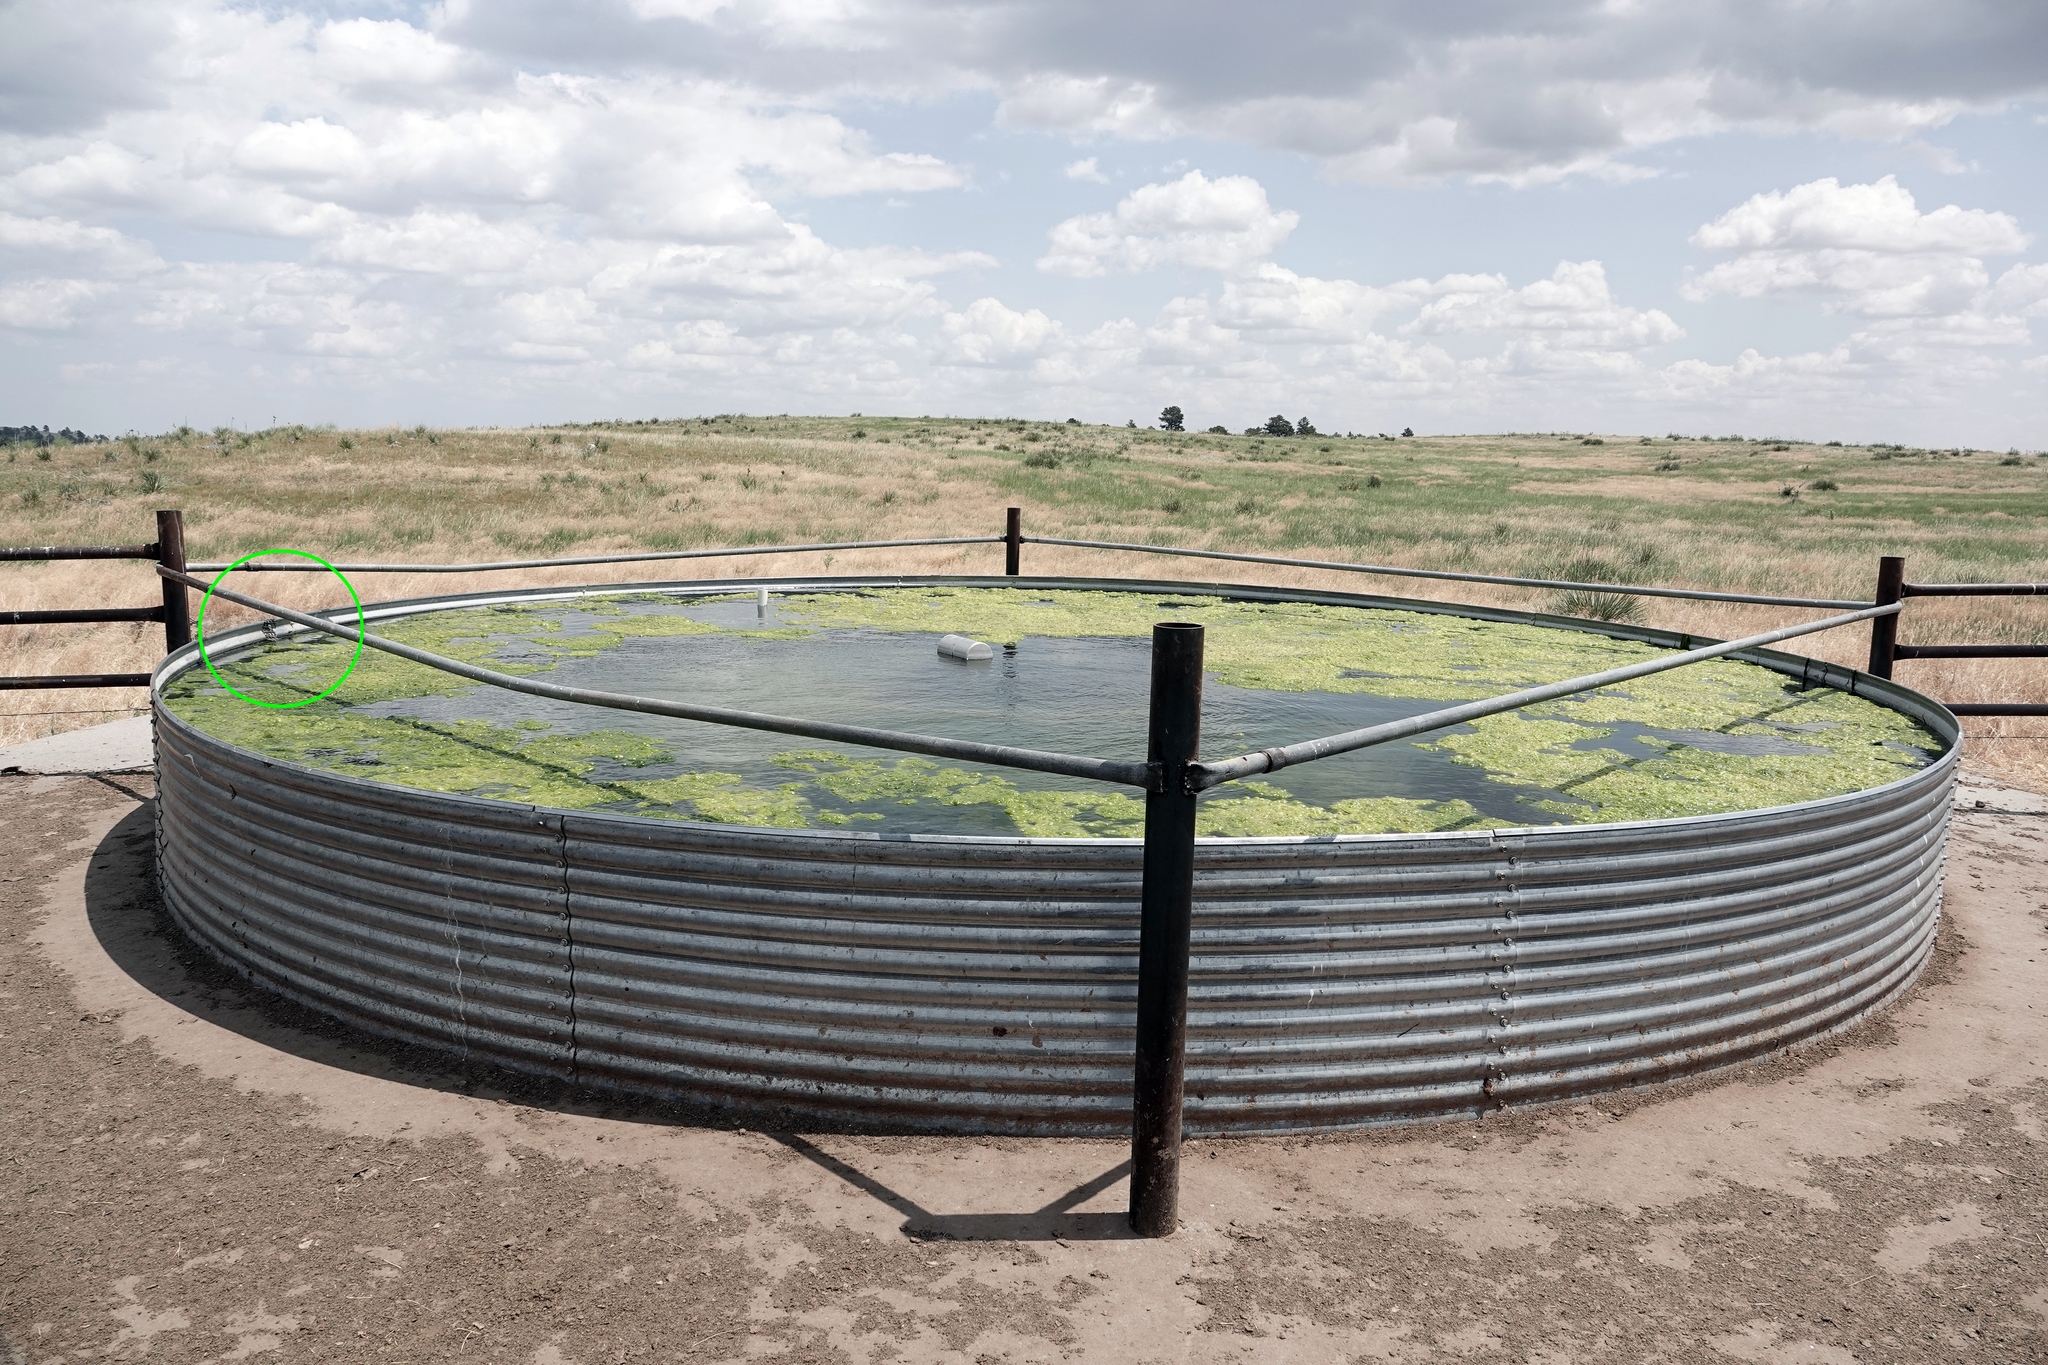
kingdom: Animalia
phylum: Chordata
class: Aves
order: Passeriformes
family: Passerellidae
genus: Chondestes
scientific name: Chondestes grammacus
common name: Lark sparrow
